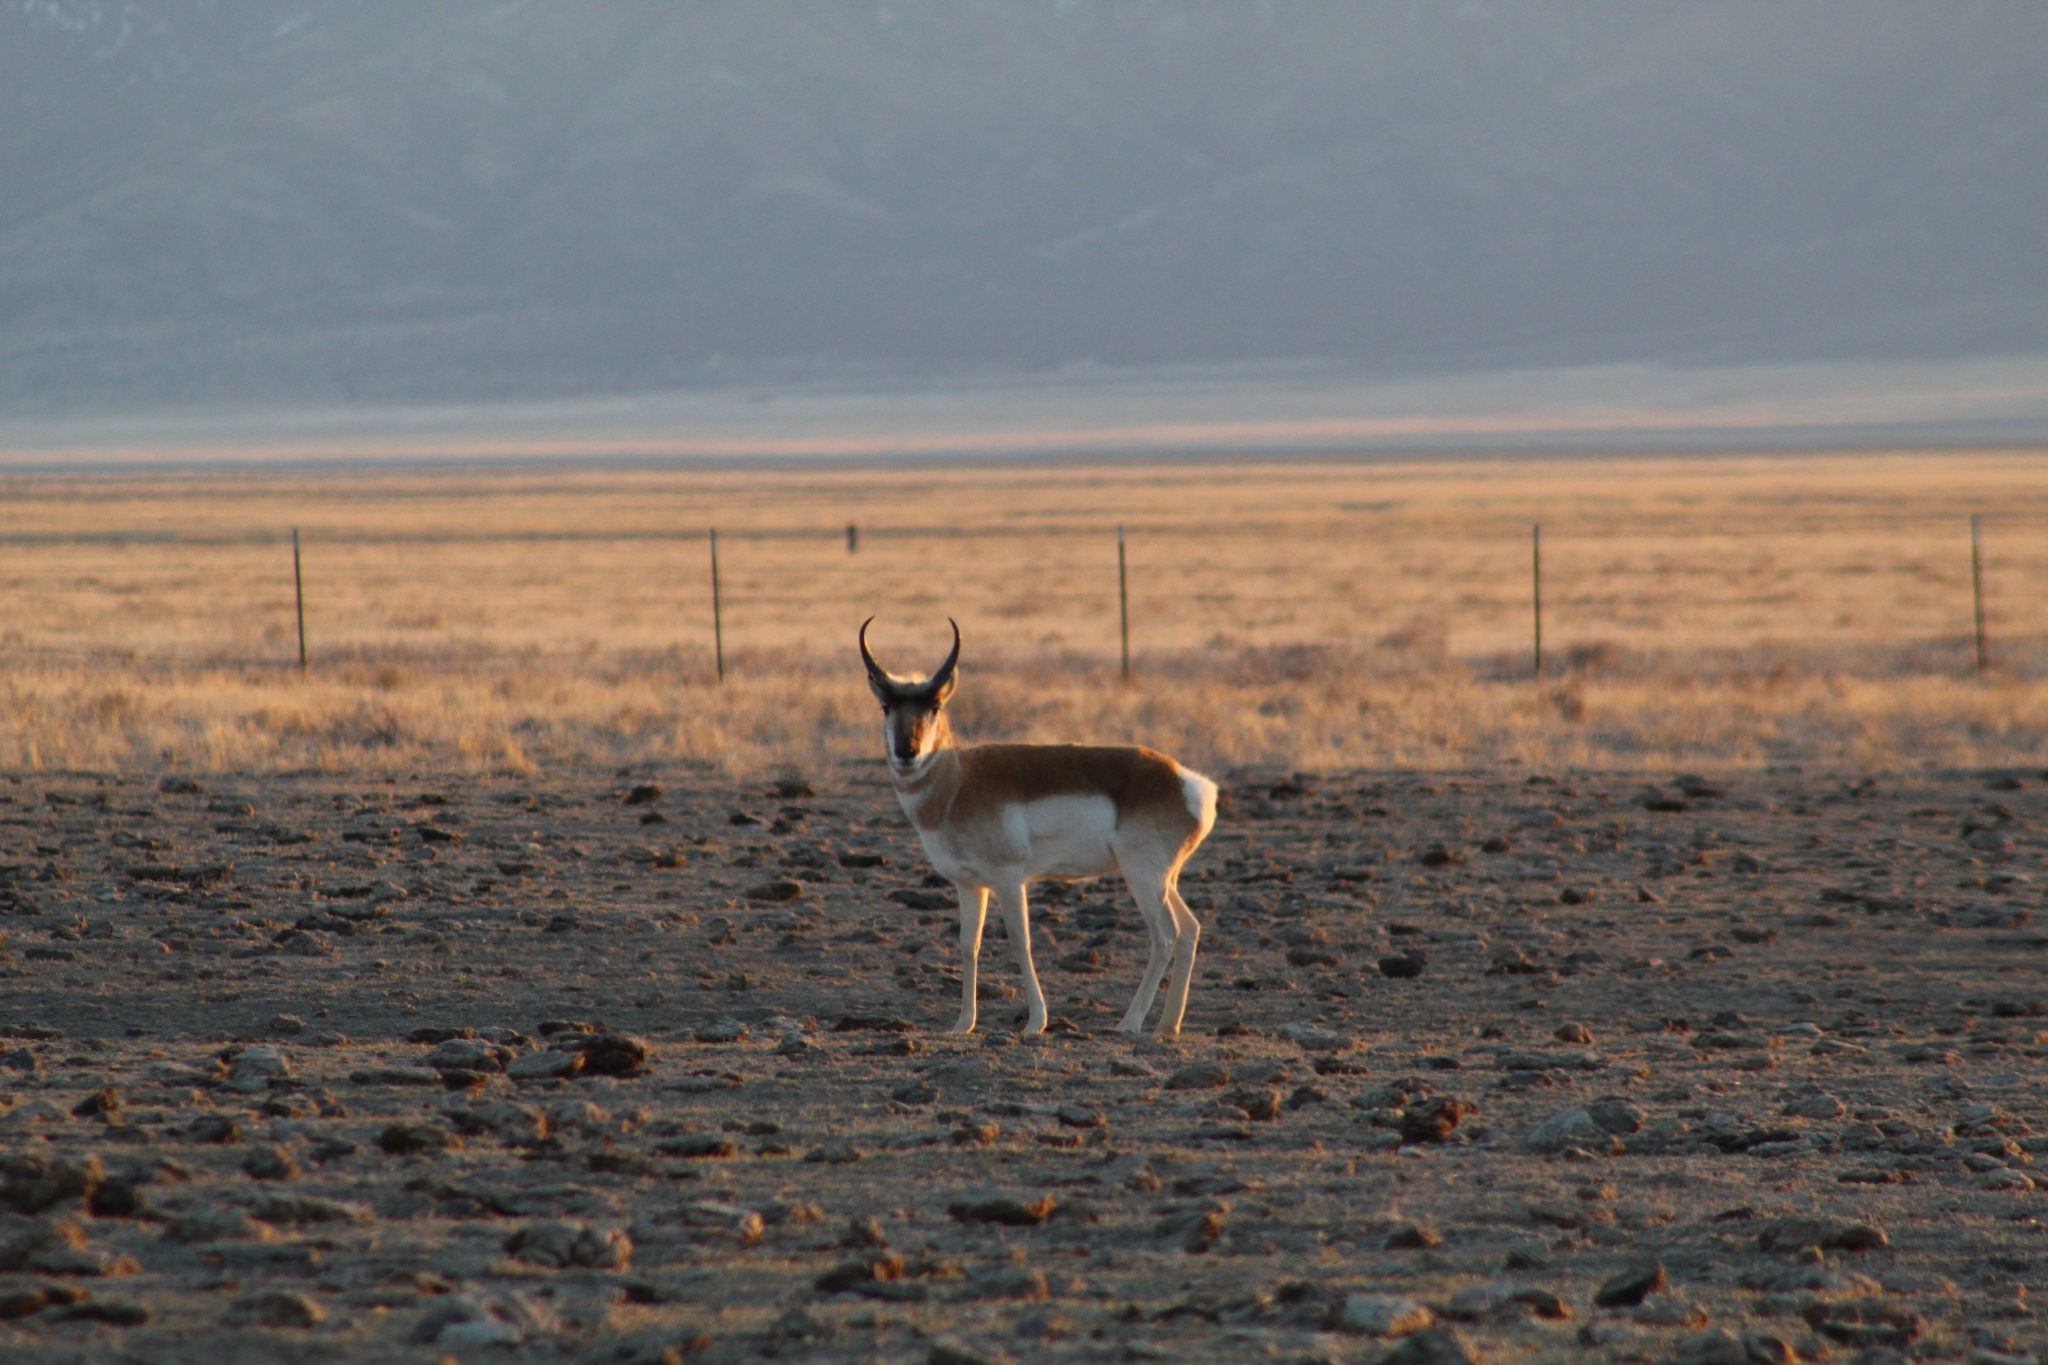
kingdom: Animalia
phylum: Chordata
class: Mammalia
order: Artiodactyla
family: Antilocapridae
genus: Antilocapra
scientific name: Antilocapra americana
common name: Pronghorn
